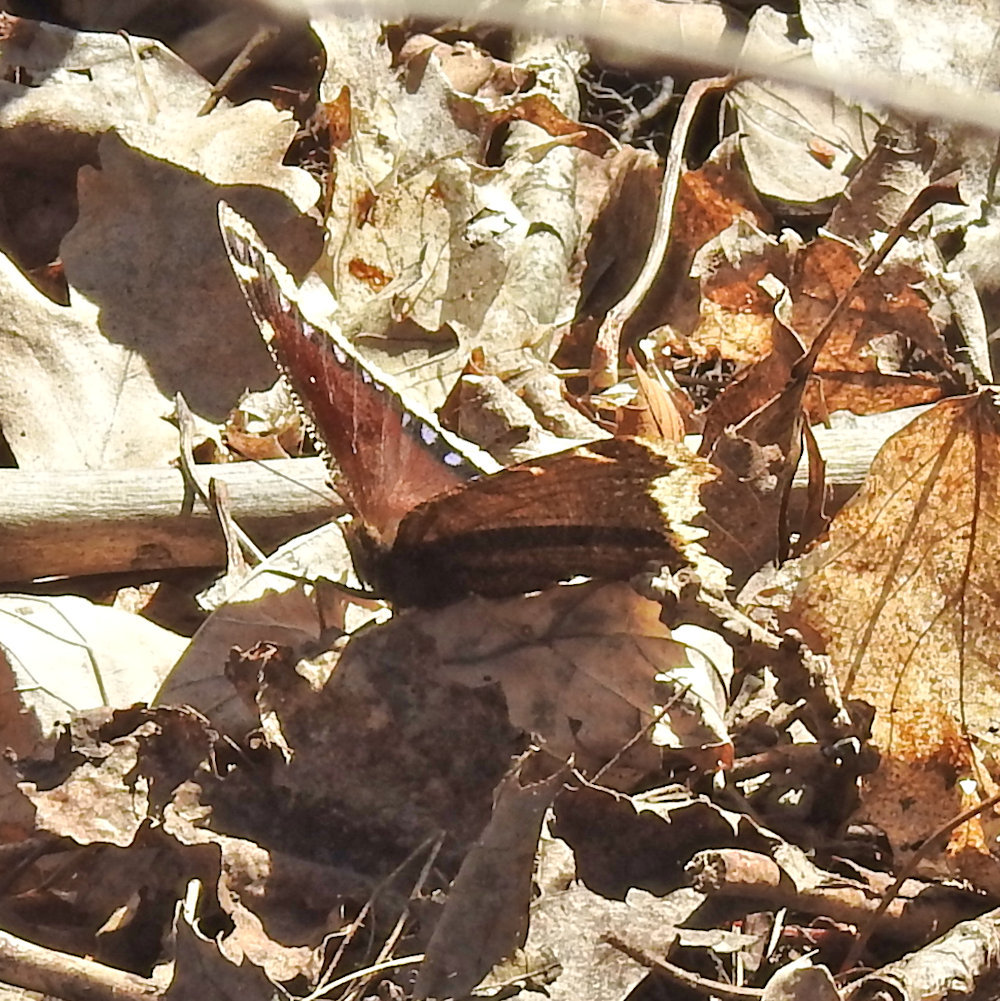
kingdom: Animalia
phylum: Arthropoda
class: Insecta
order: Lepidoptera
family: Nymphalidae
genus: Nymphalis
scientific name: Nymphalis antiopa
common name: Camberwell beauty
